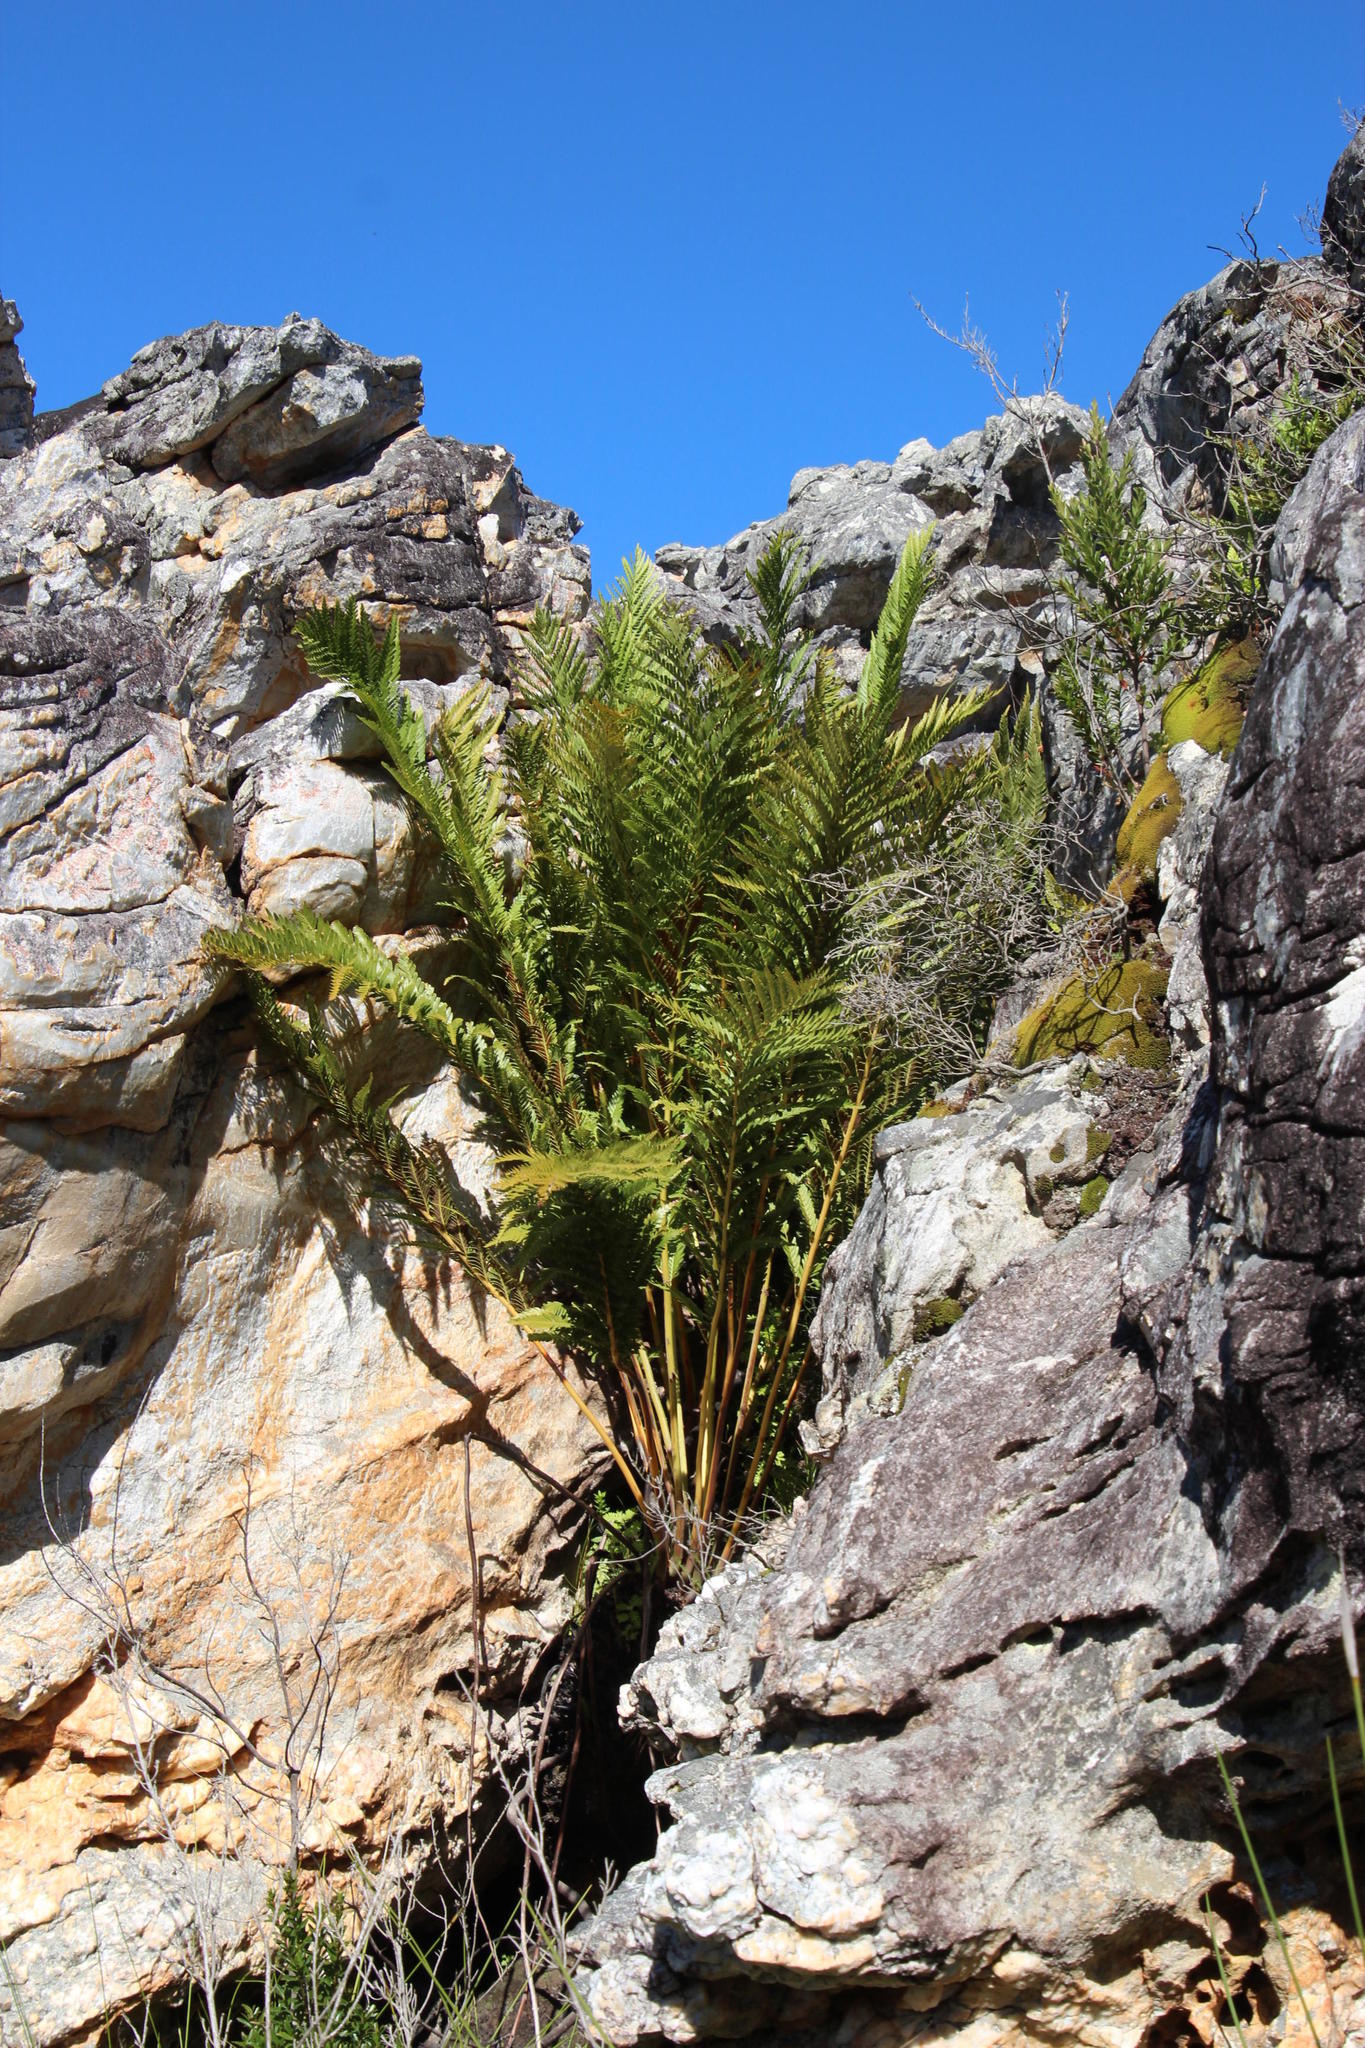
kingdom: Plantae
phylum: Tracheophyta
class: Polypodiopsida
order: Osmundales
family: Osmundaceae
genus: Todea
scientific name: Todea barbara
